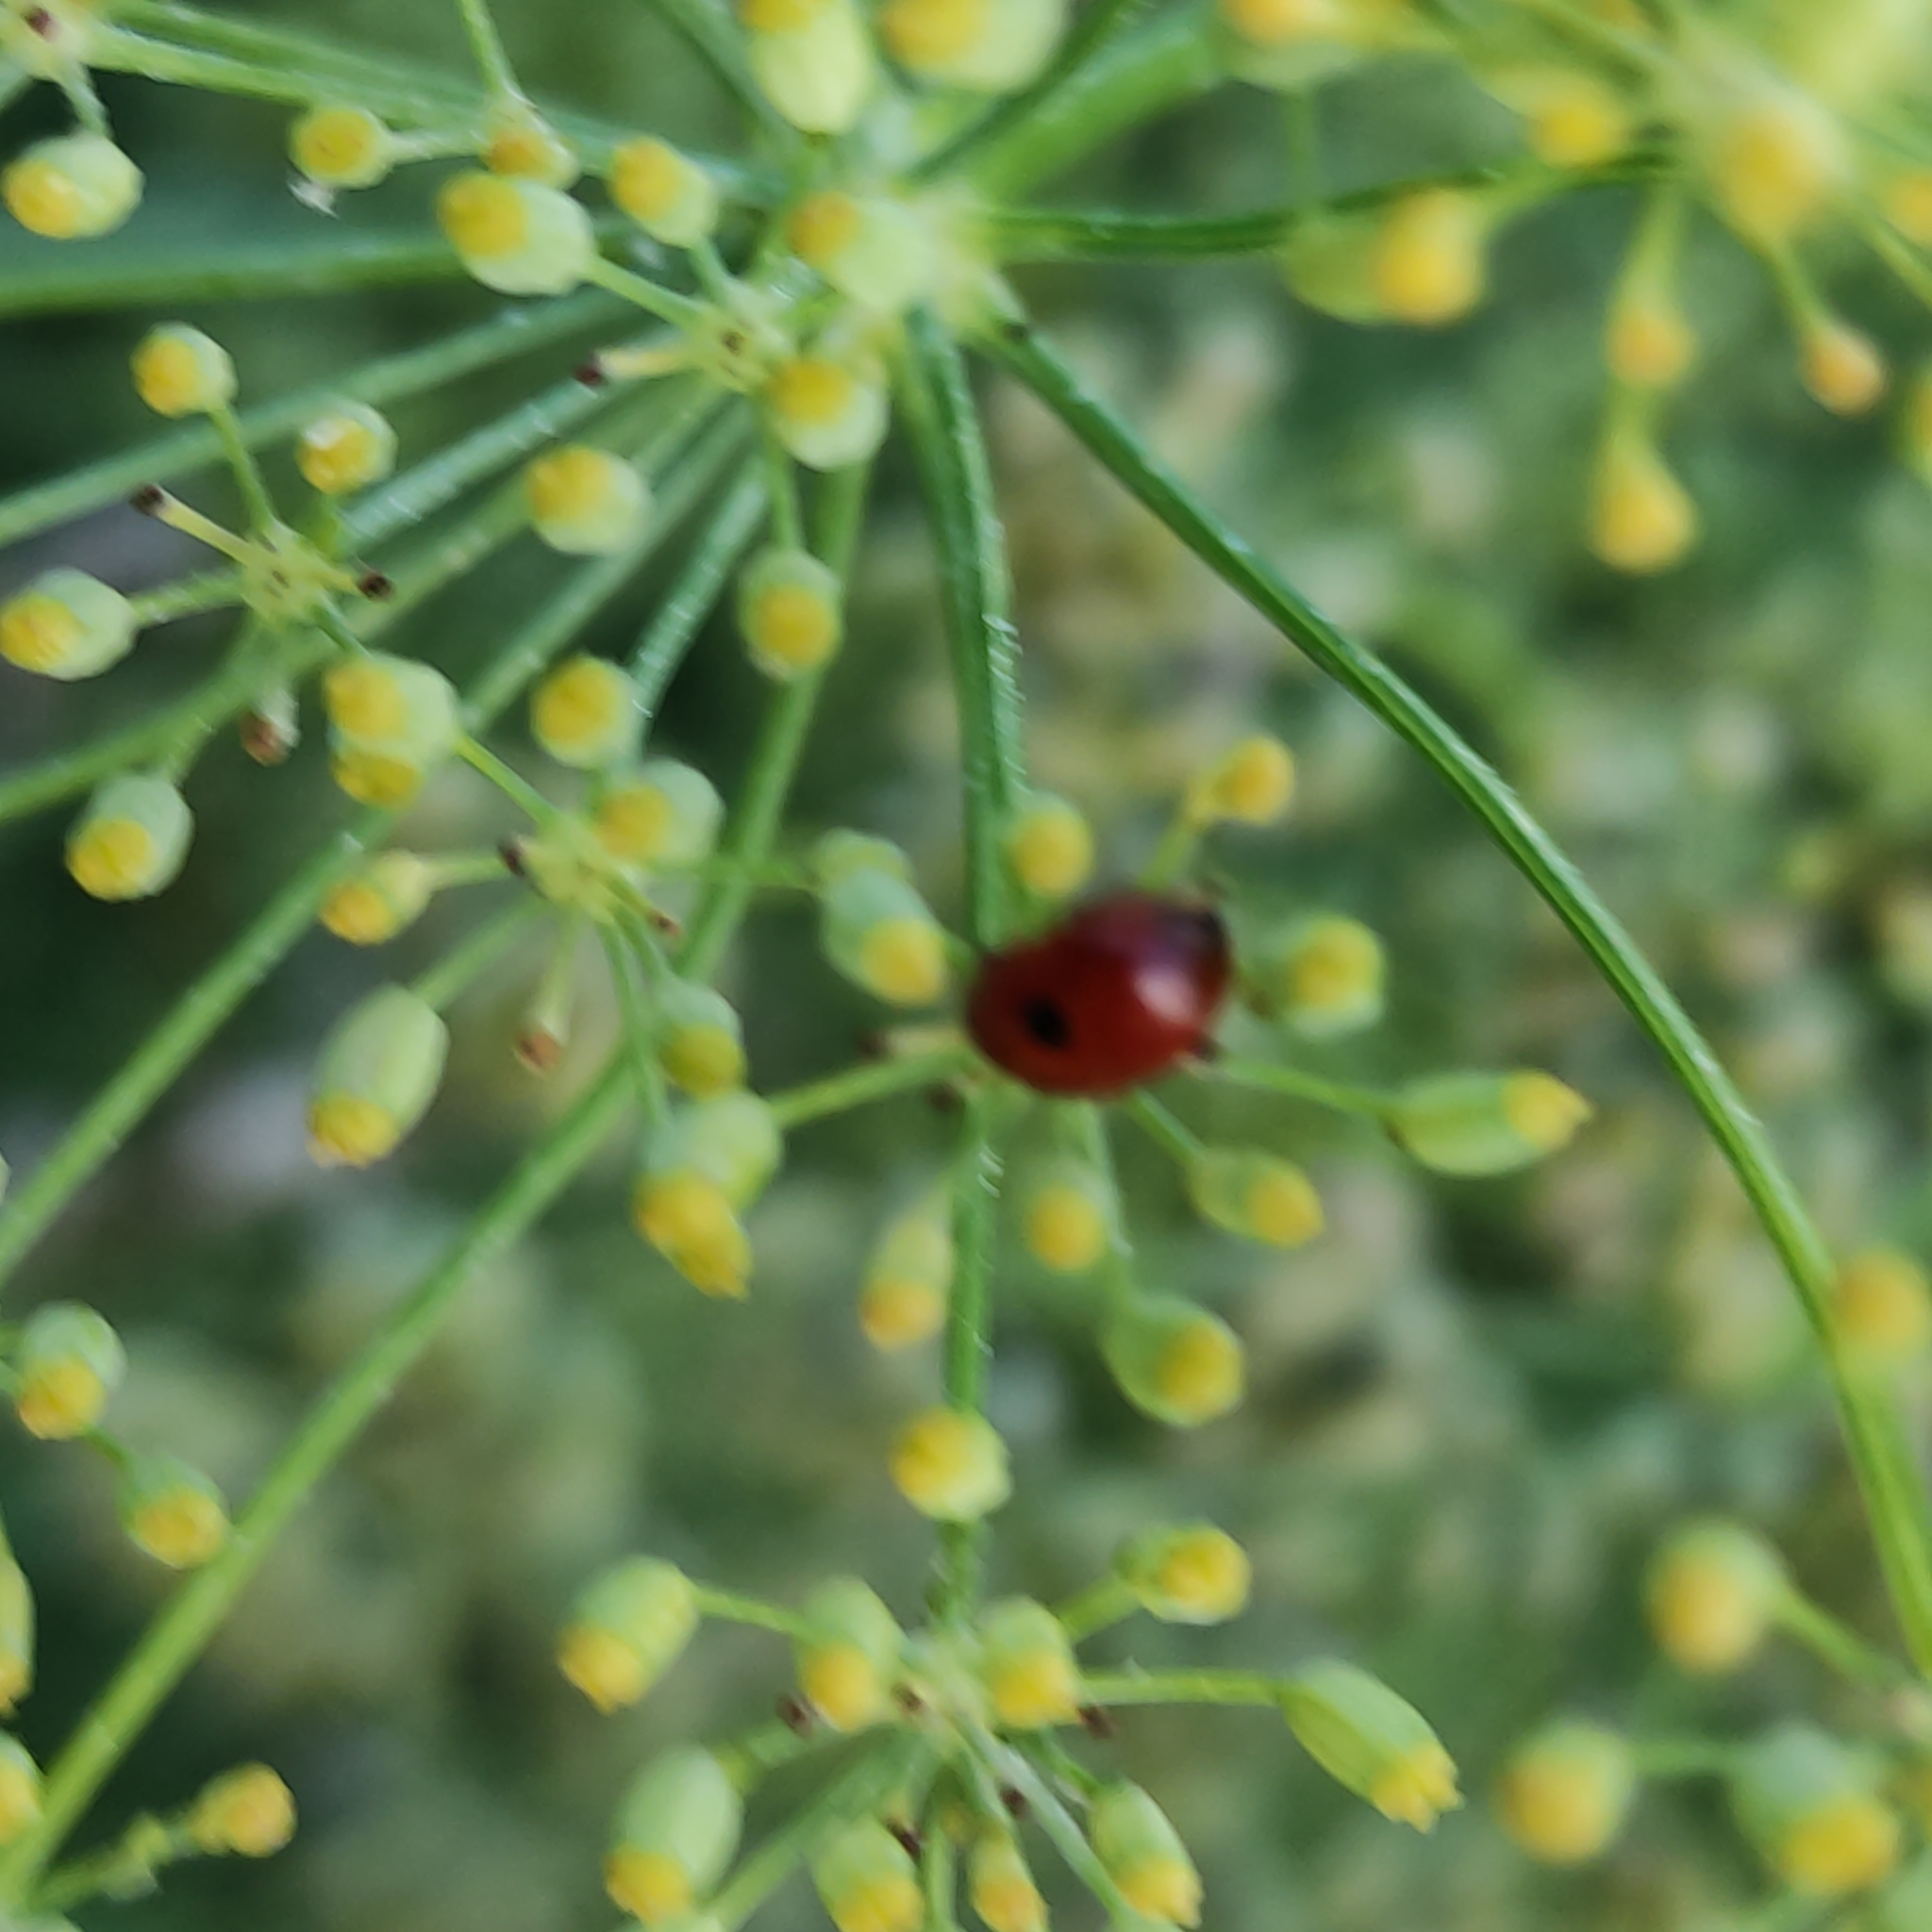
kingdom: Animalia
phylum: Arthropoda
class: Insecta
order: Coleoptera
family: Coccinellidae
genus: Adalia
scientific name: Adalia bipunctata
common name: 2-spot ladybird
